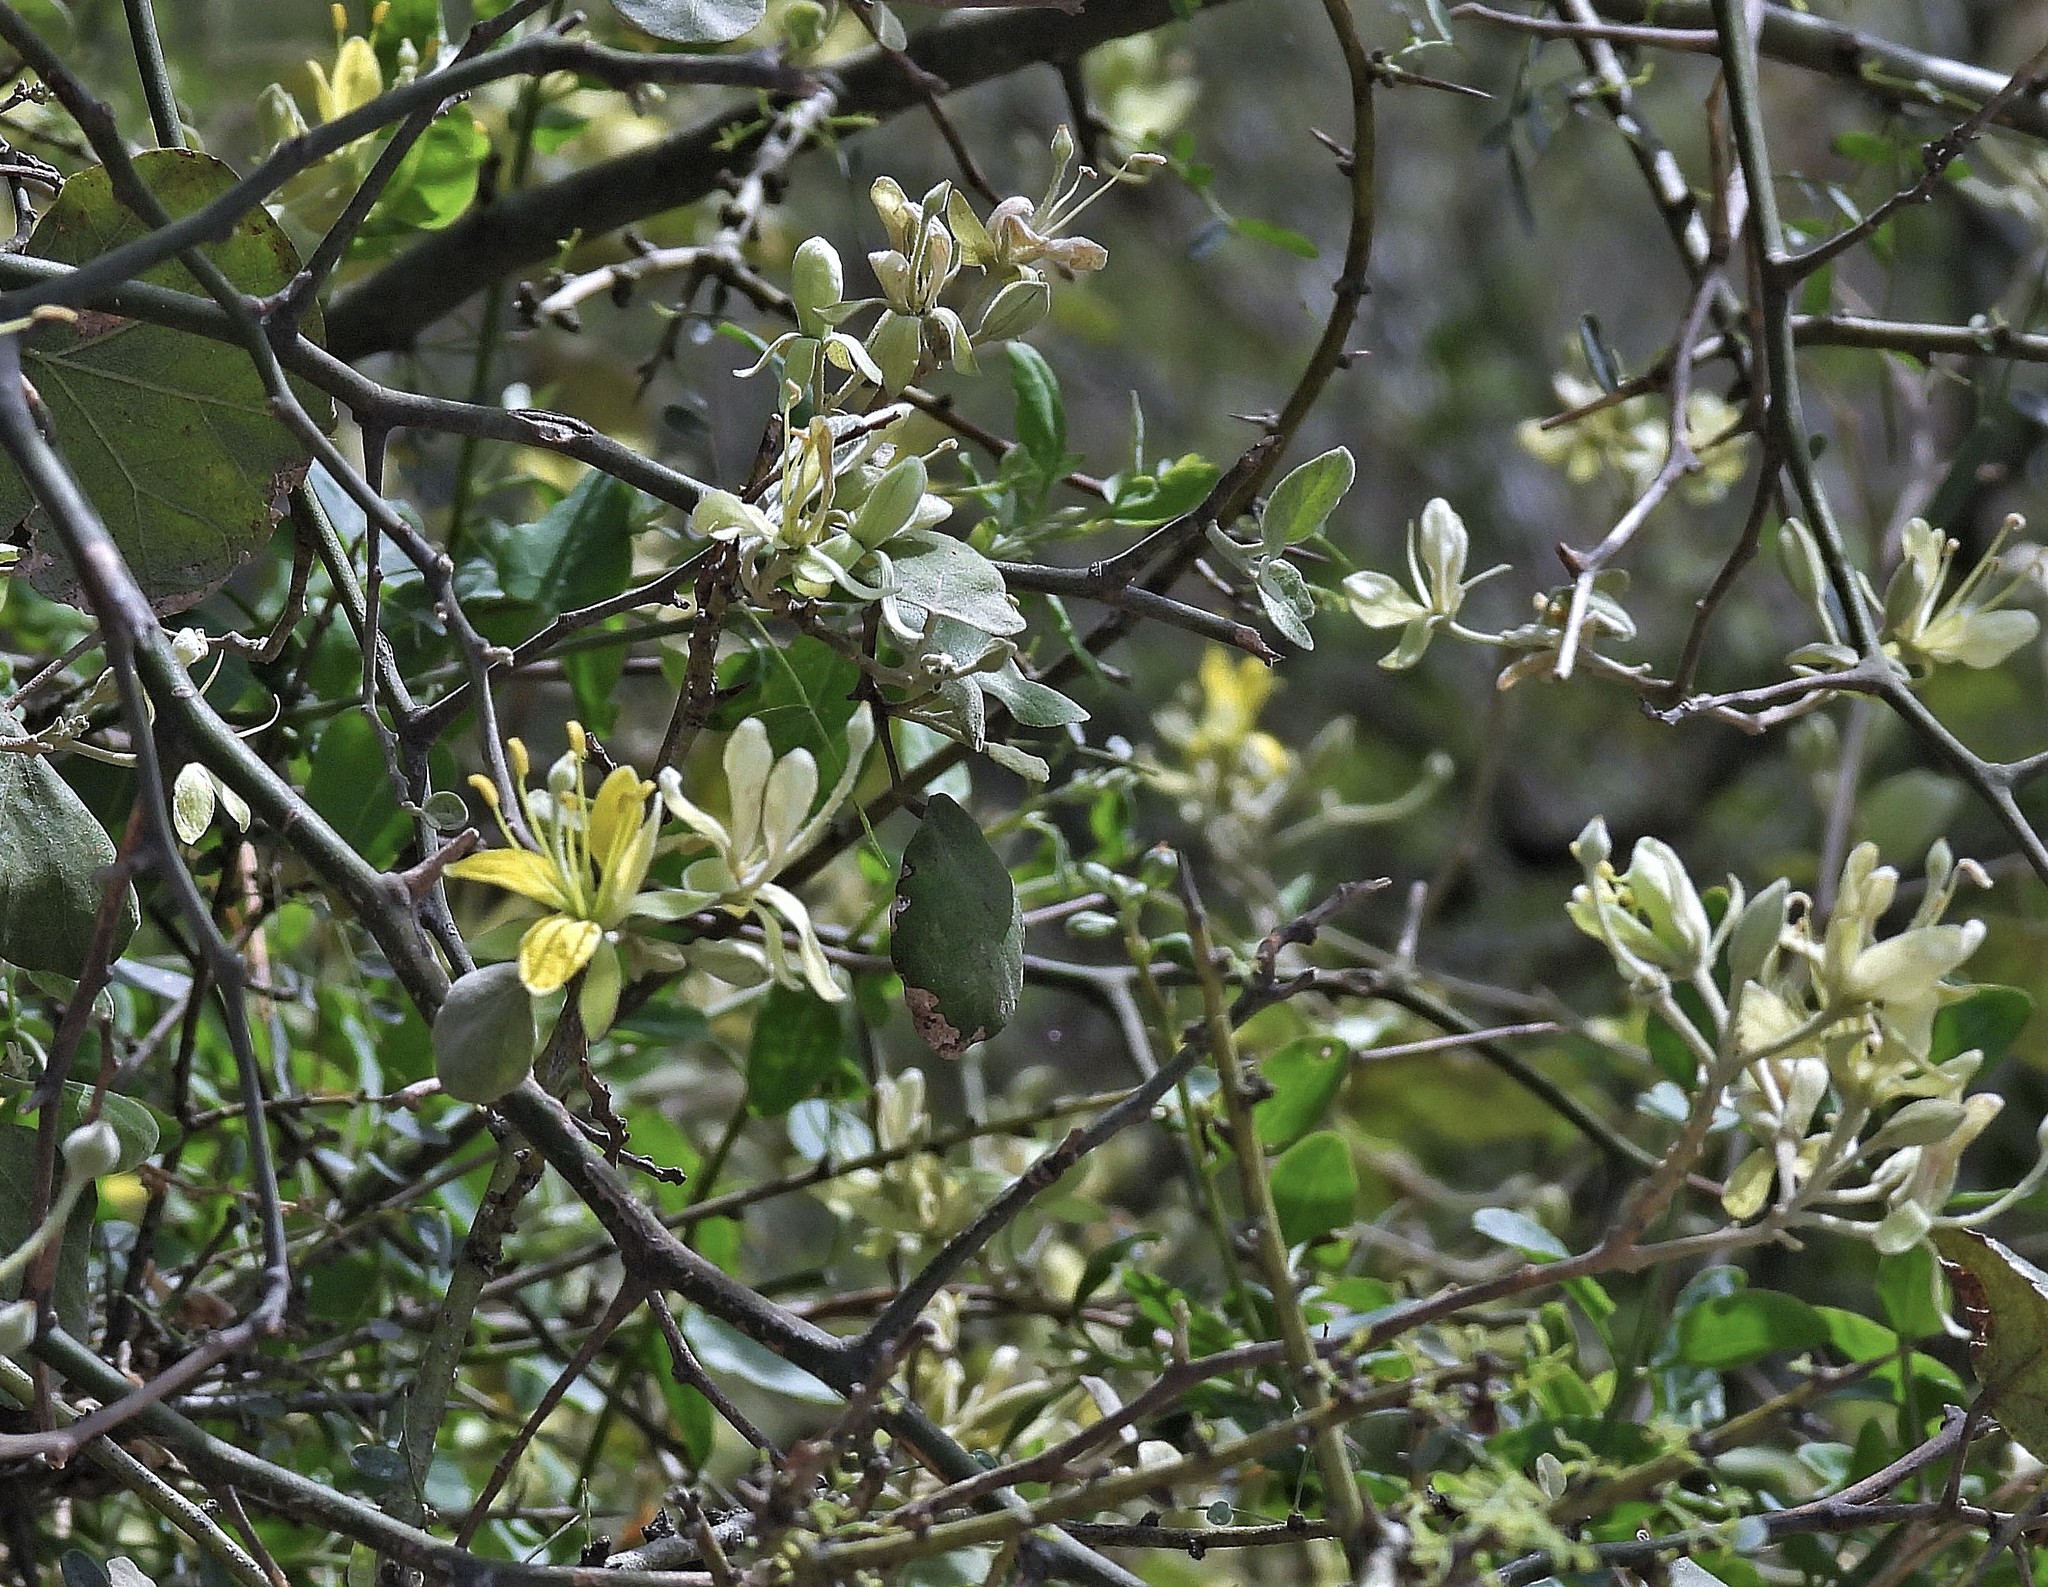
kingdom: Plantae
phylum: Tracheophyta
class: Magnoliopsida
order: Brassicales
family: Capparaceae
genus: Capparicordis
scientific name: Capparicordis tweedieana
